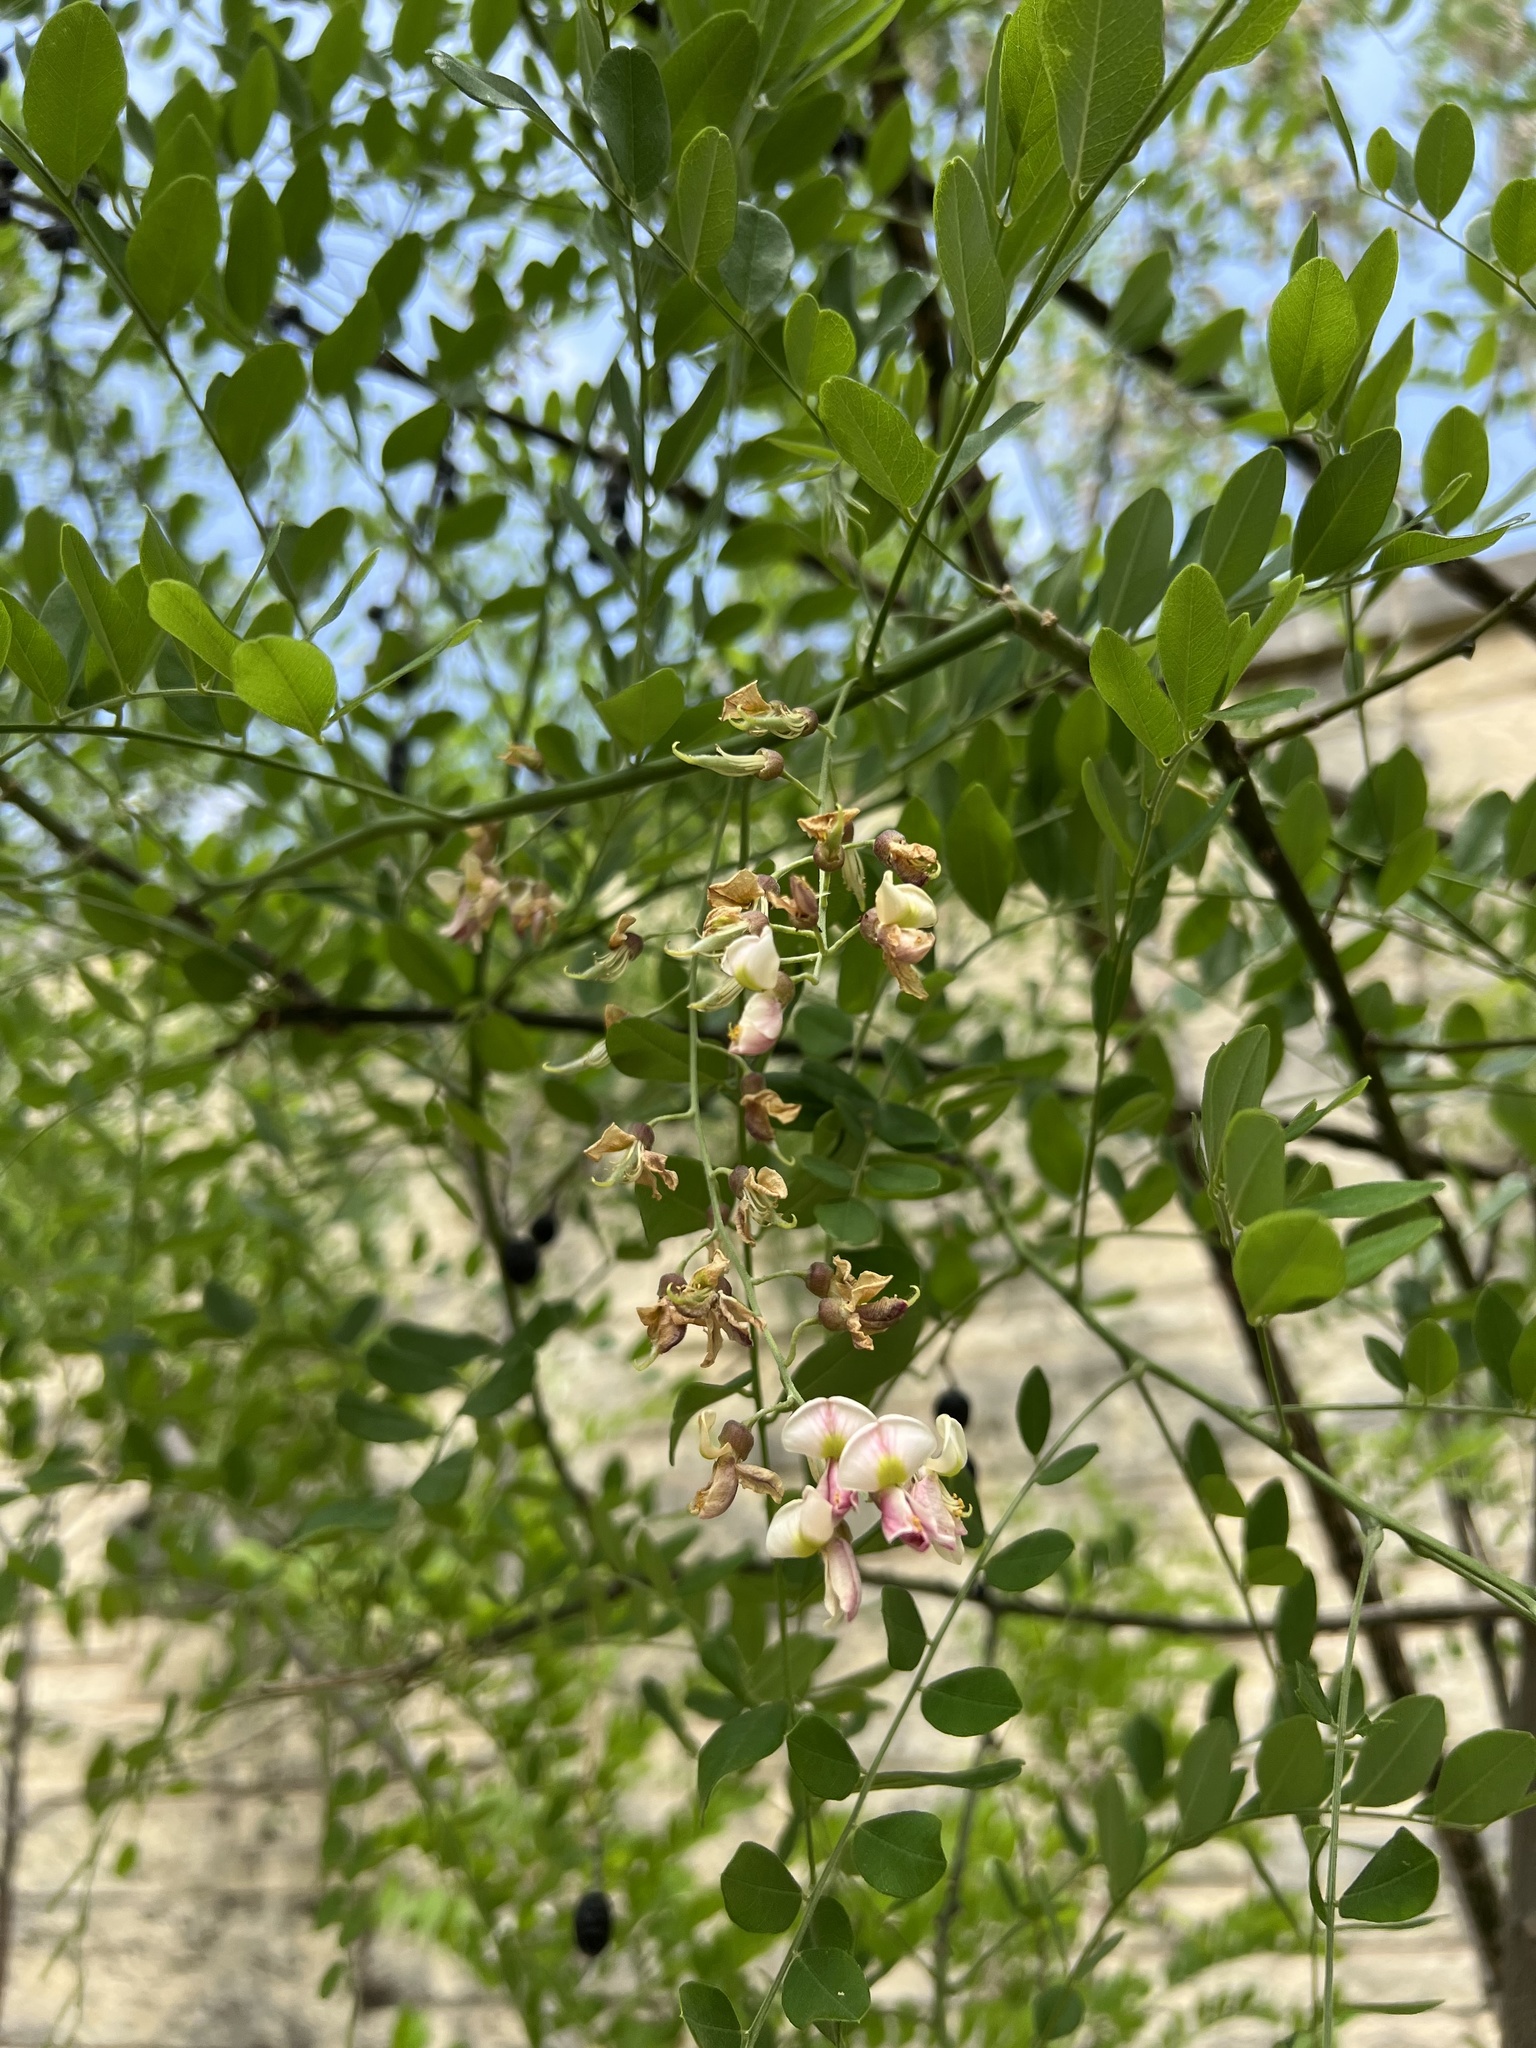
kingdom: Plantae
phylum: Tracheophyta
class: Magnoliopsida
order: Fabales
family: Fabaceae
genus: Styphnolobium
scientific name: Styphnolobium affine
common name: Texas sophora
